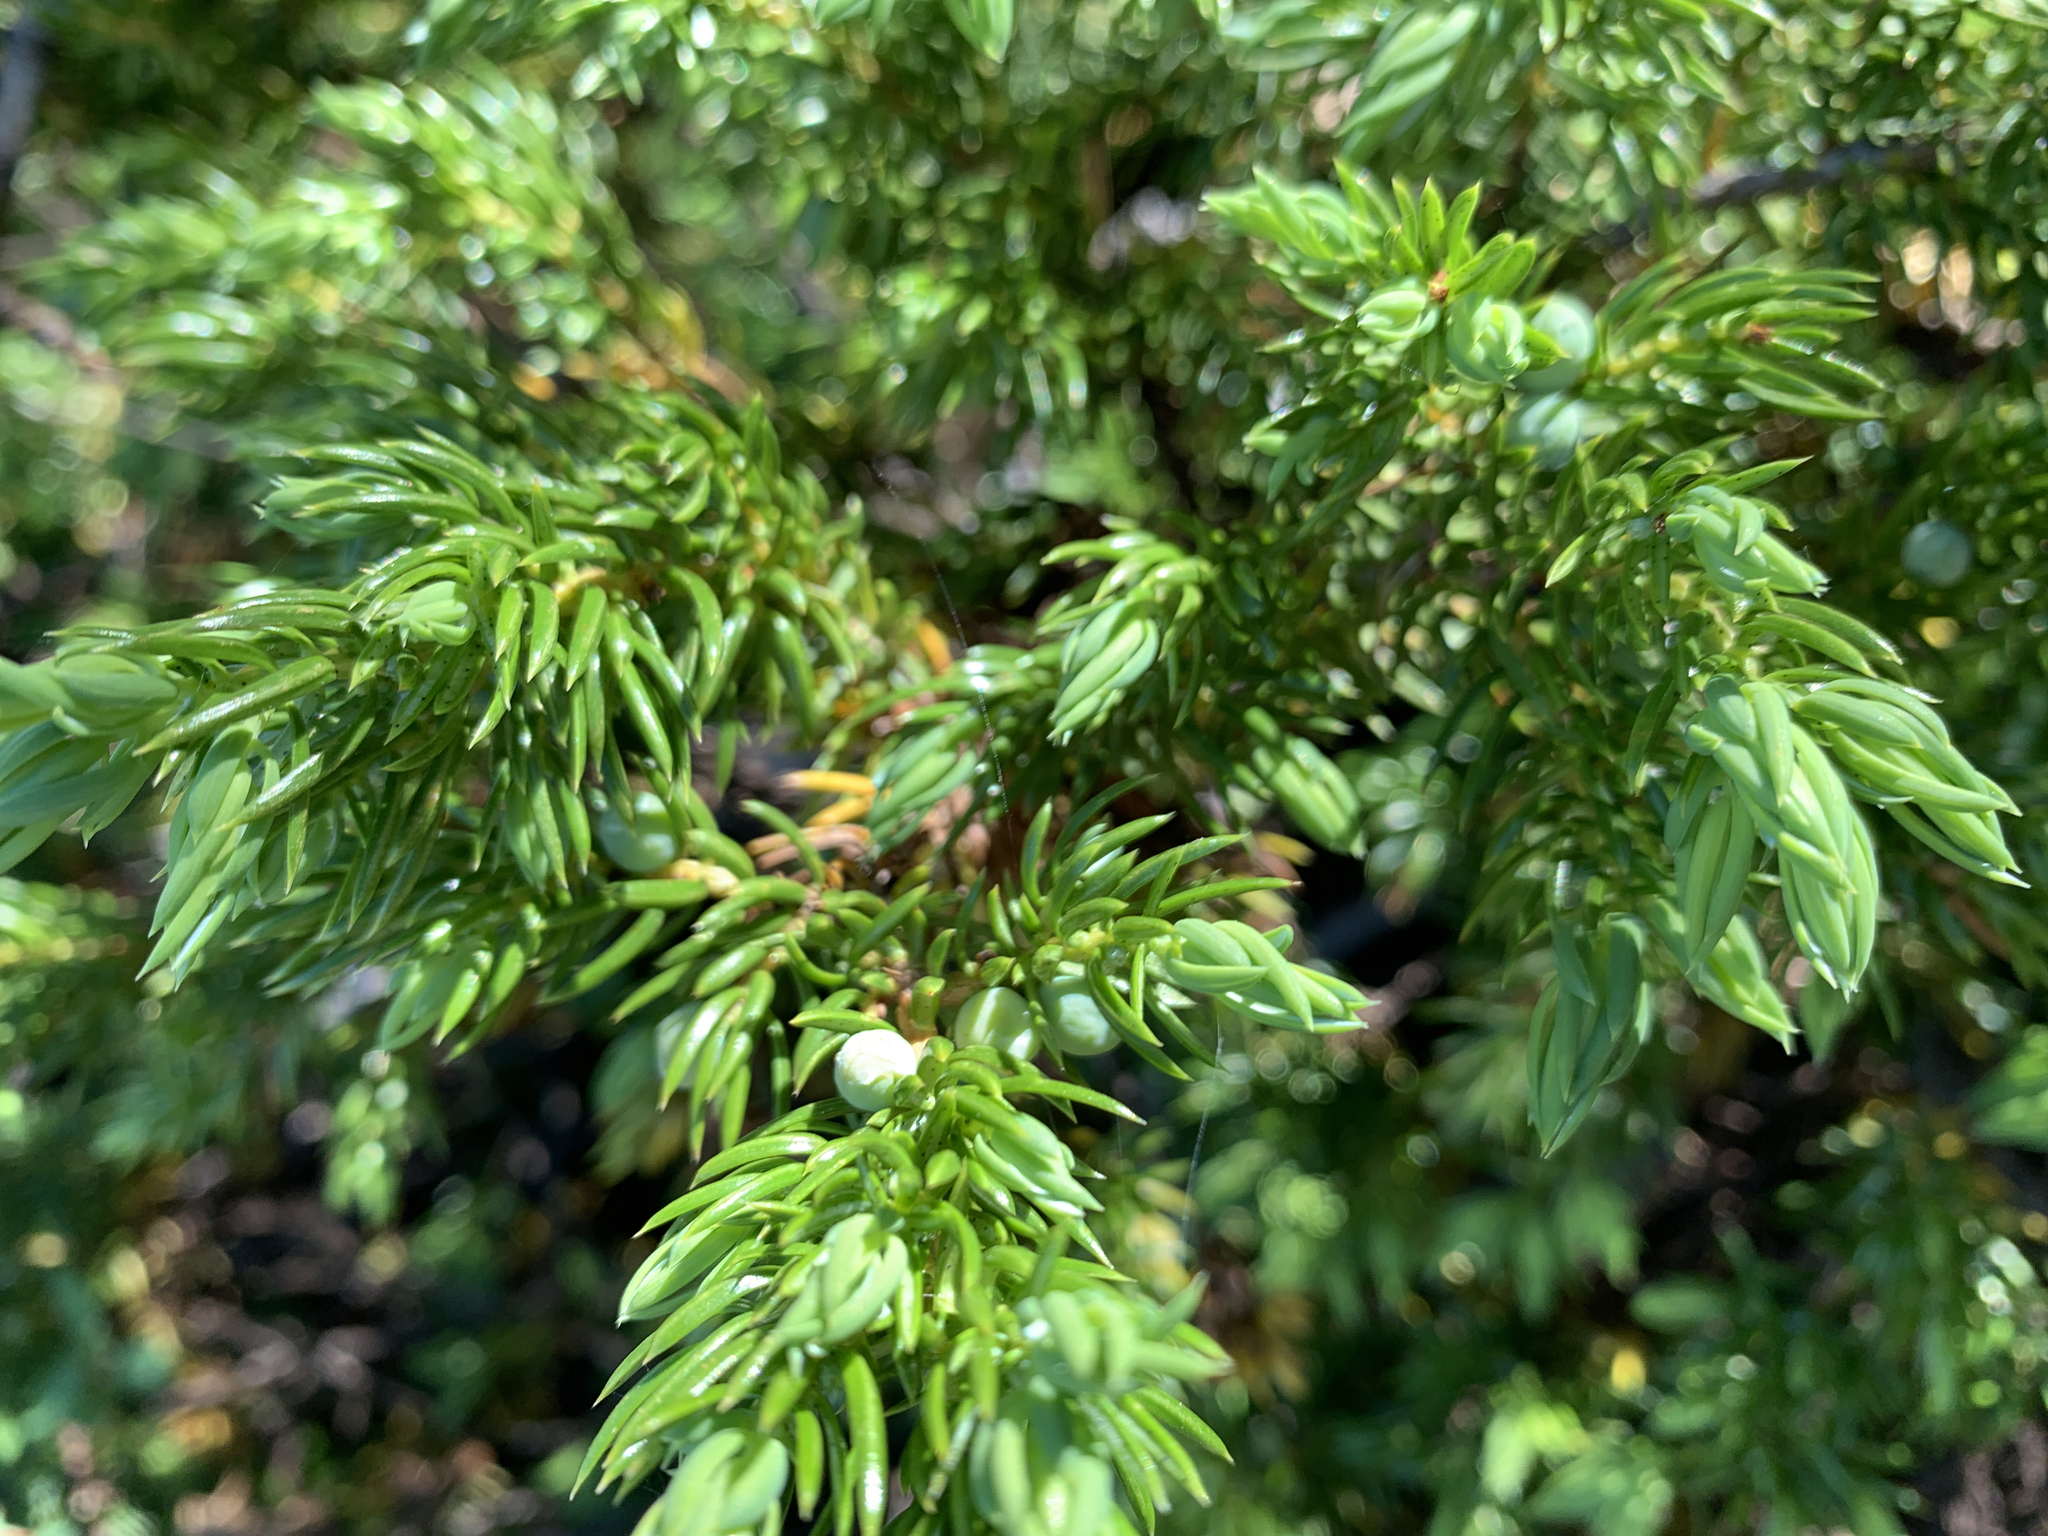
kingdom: Plantae
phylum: Tracheophyta
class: Pinopsida
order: Pinales
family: Cupressaceae
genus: Juniperus
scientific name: Juniperus communis
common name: Common juniper
